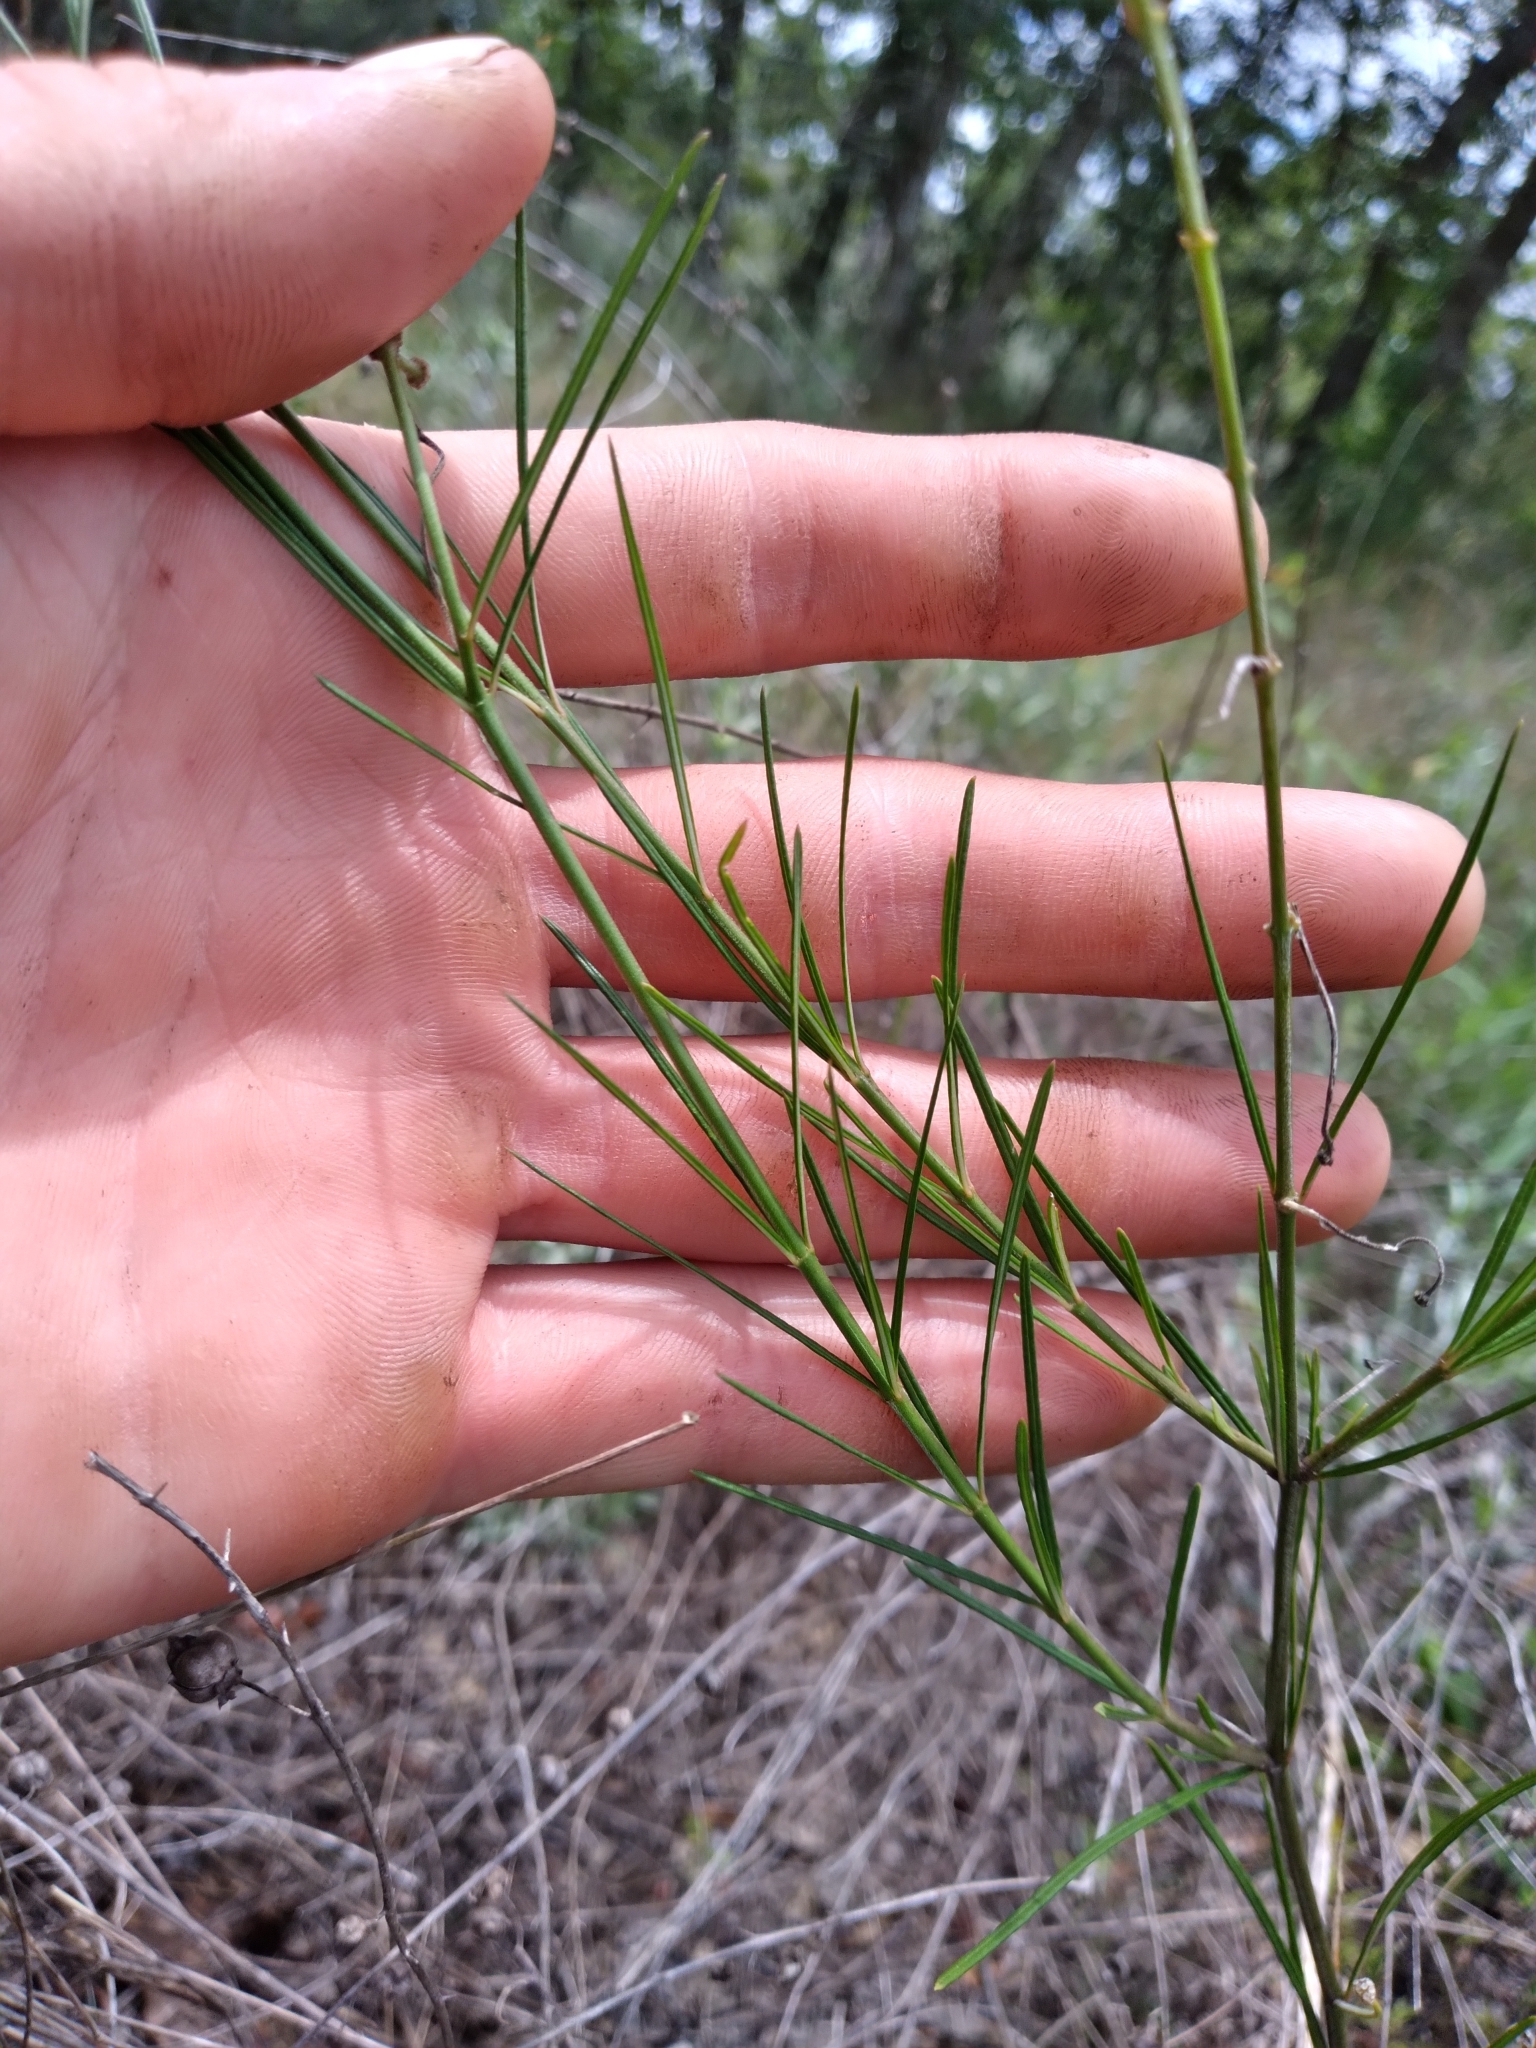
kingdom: Plantae
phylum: Tracheophyta
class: Magnoliopsida
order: Gentianales
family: Apocynaceae
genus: Asclepias
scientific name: Asclepias verticillata
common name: Eastern whorled milkweed
